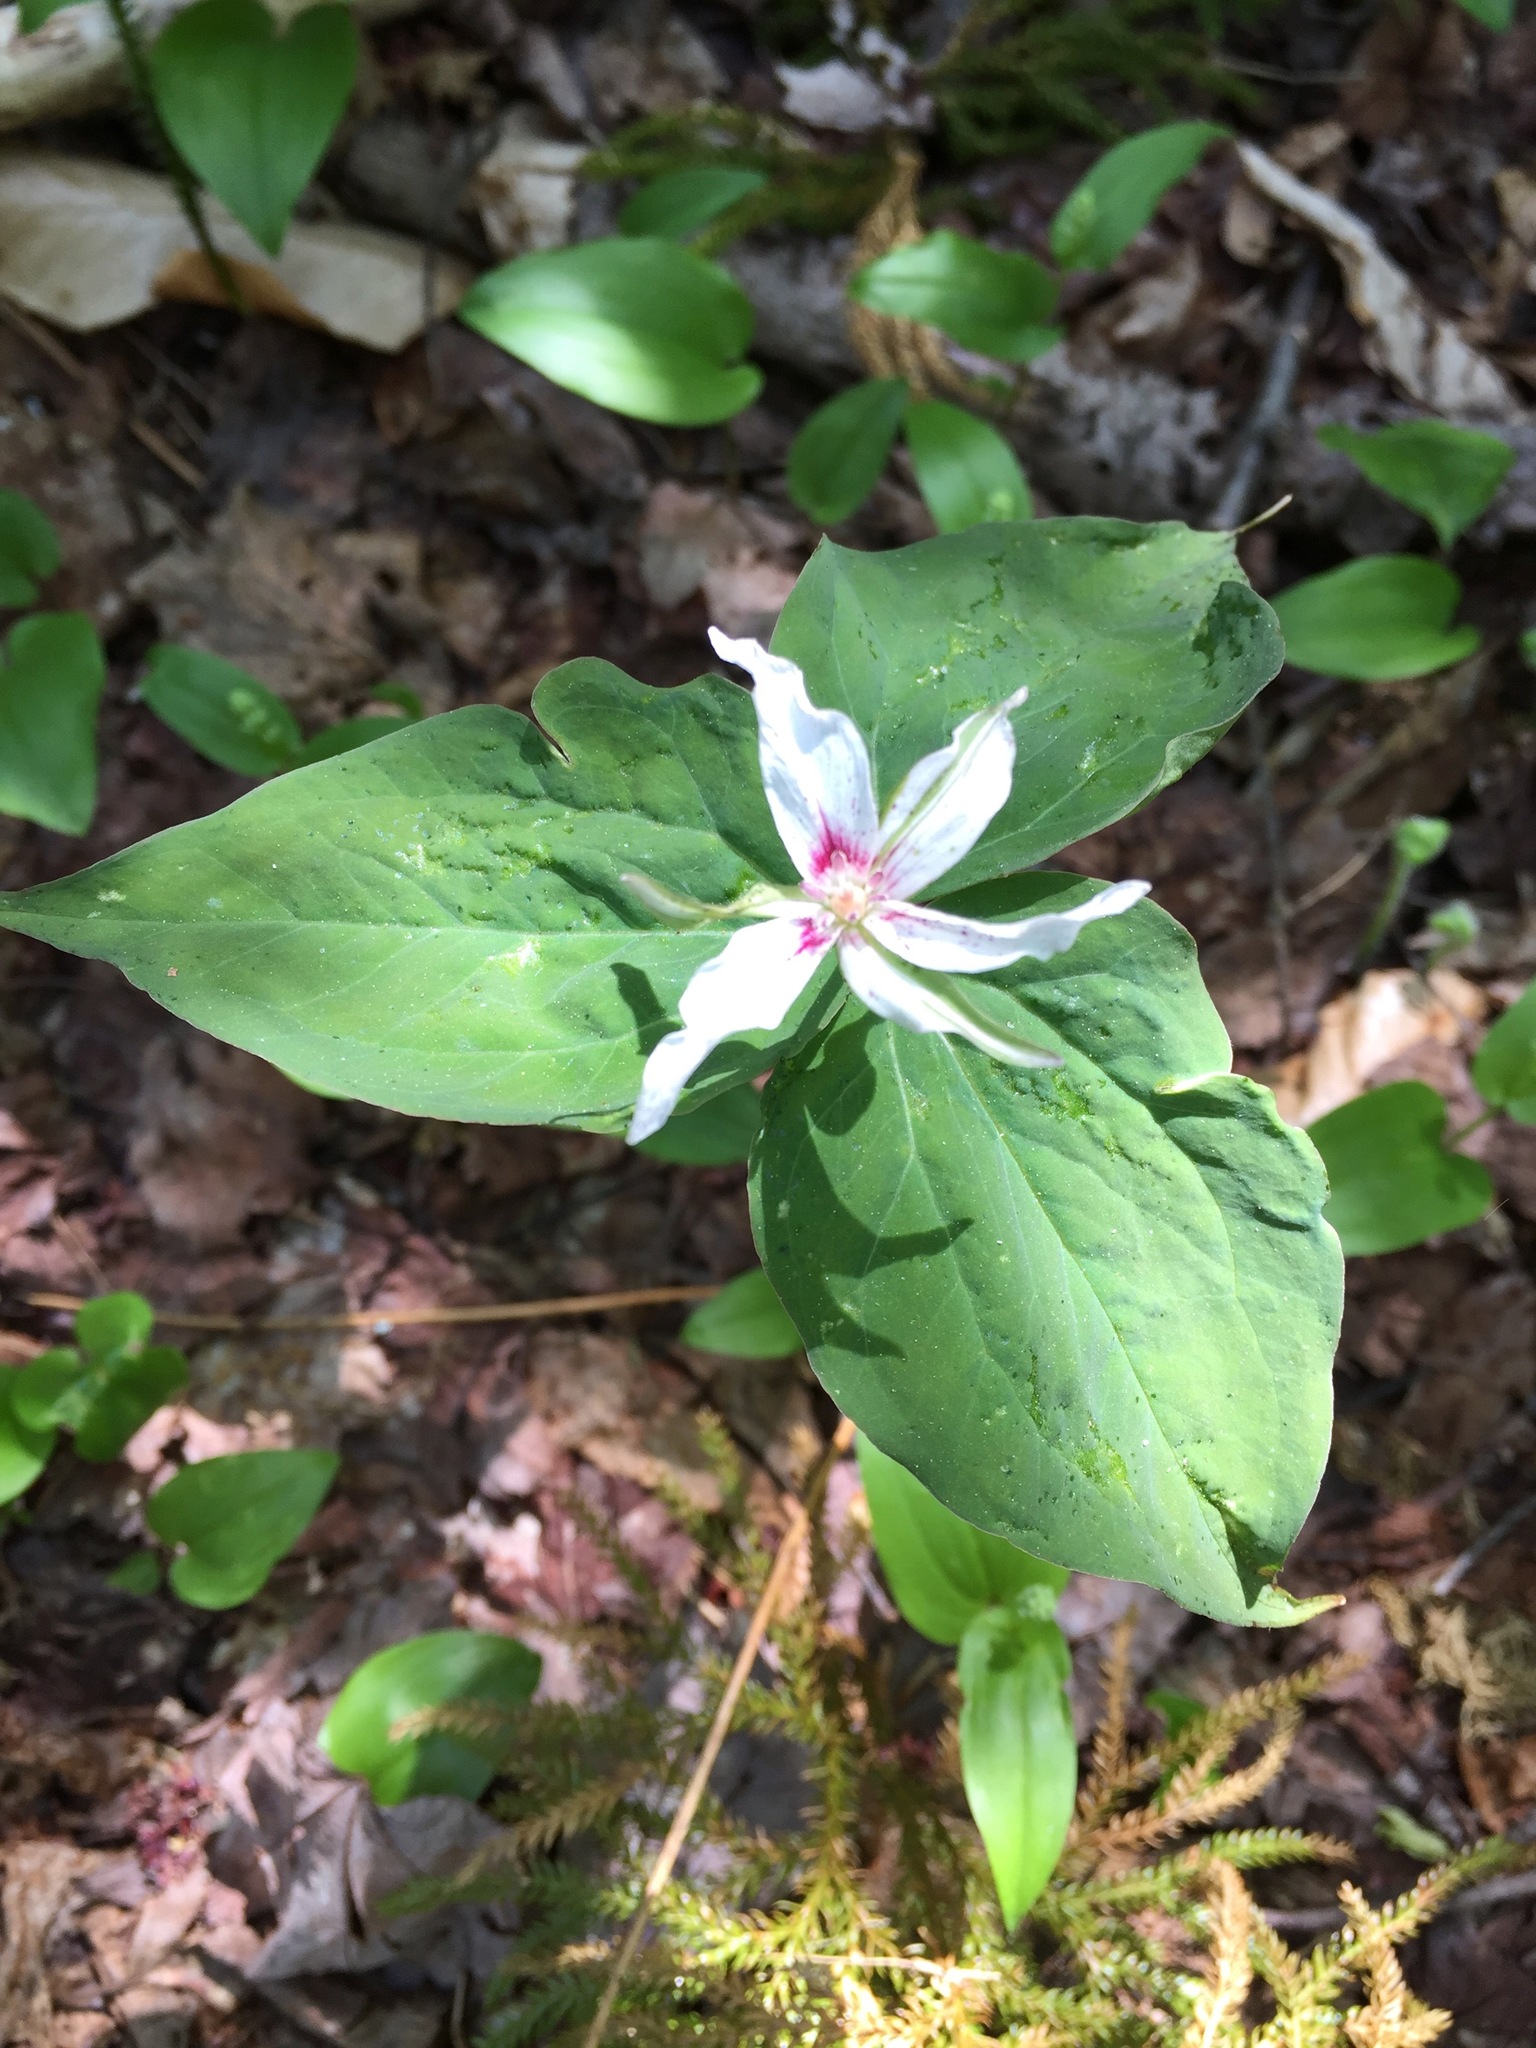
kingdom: Plantae
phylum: Tracheophyta
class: Liliopsida
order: Liliales
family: Melanthiaceae
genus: Trillium
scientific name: Trillium undulatum
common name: Paint trillium
